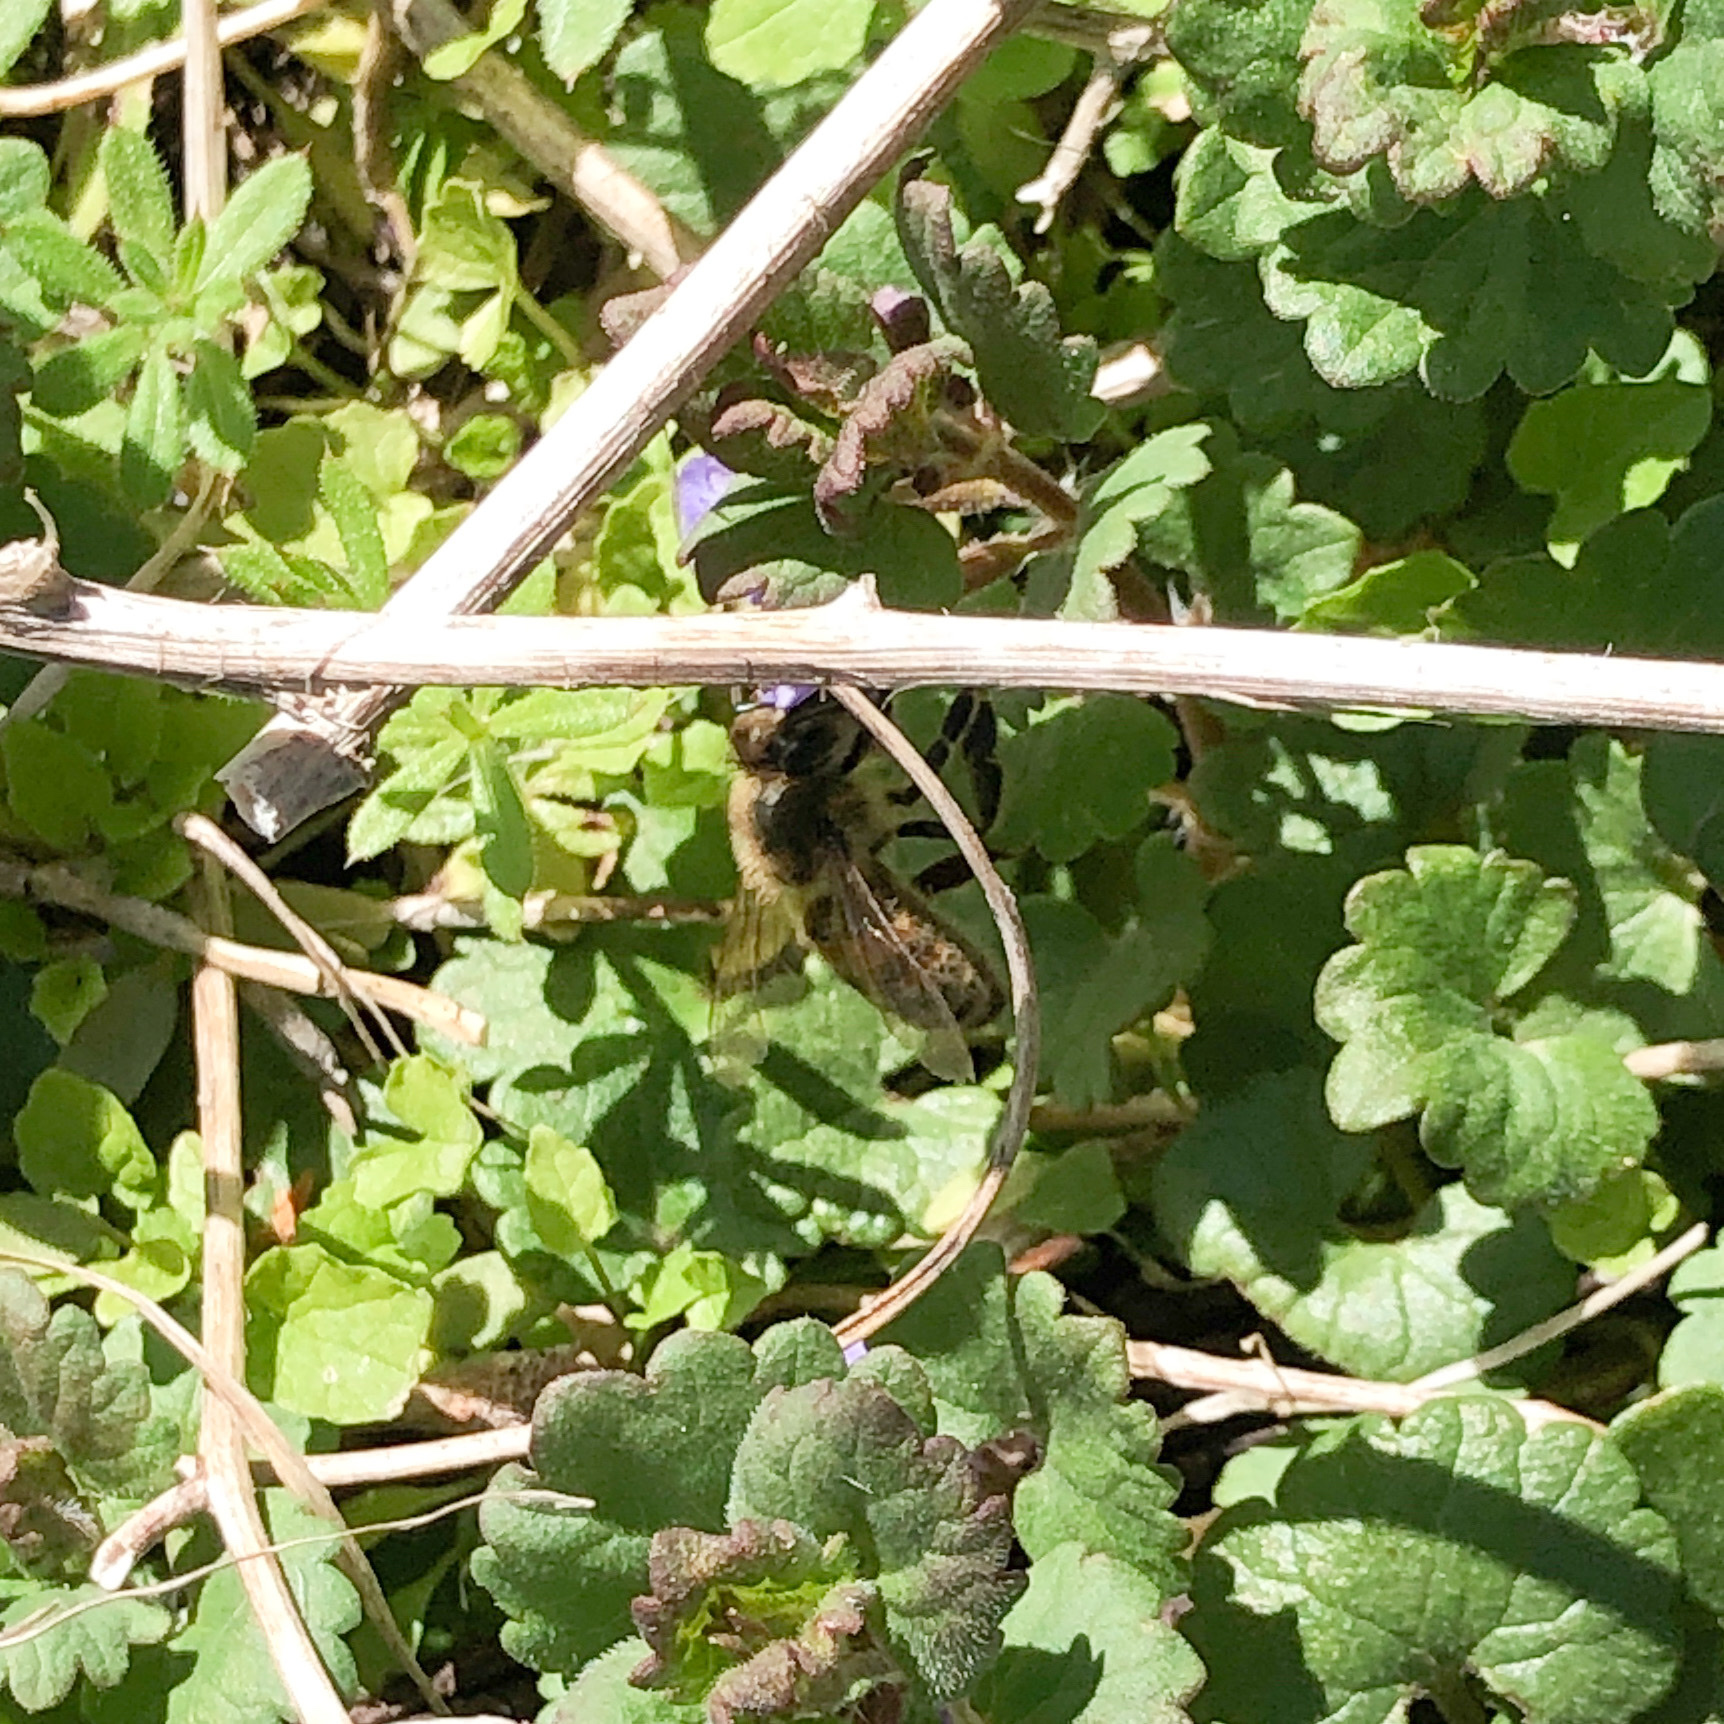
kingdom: Animalia
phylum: Arthropoda
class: Insecta
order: Hymenoptera
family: Apidae
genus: Apis
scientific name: Apis mellifera
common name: Honey bee
